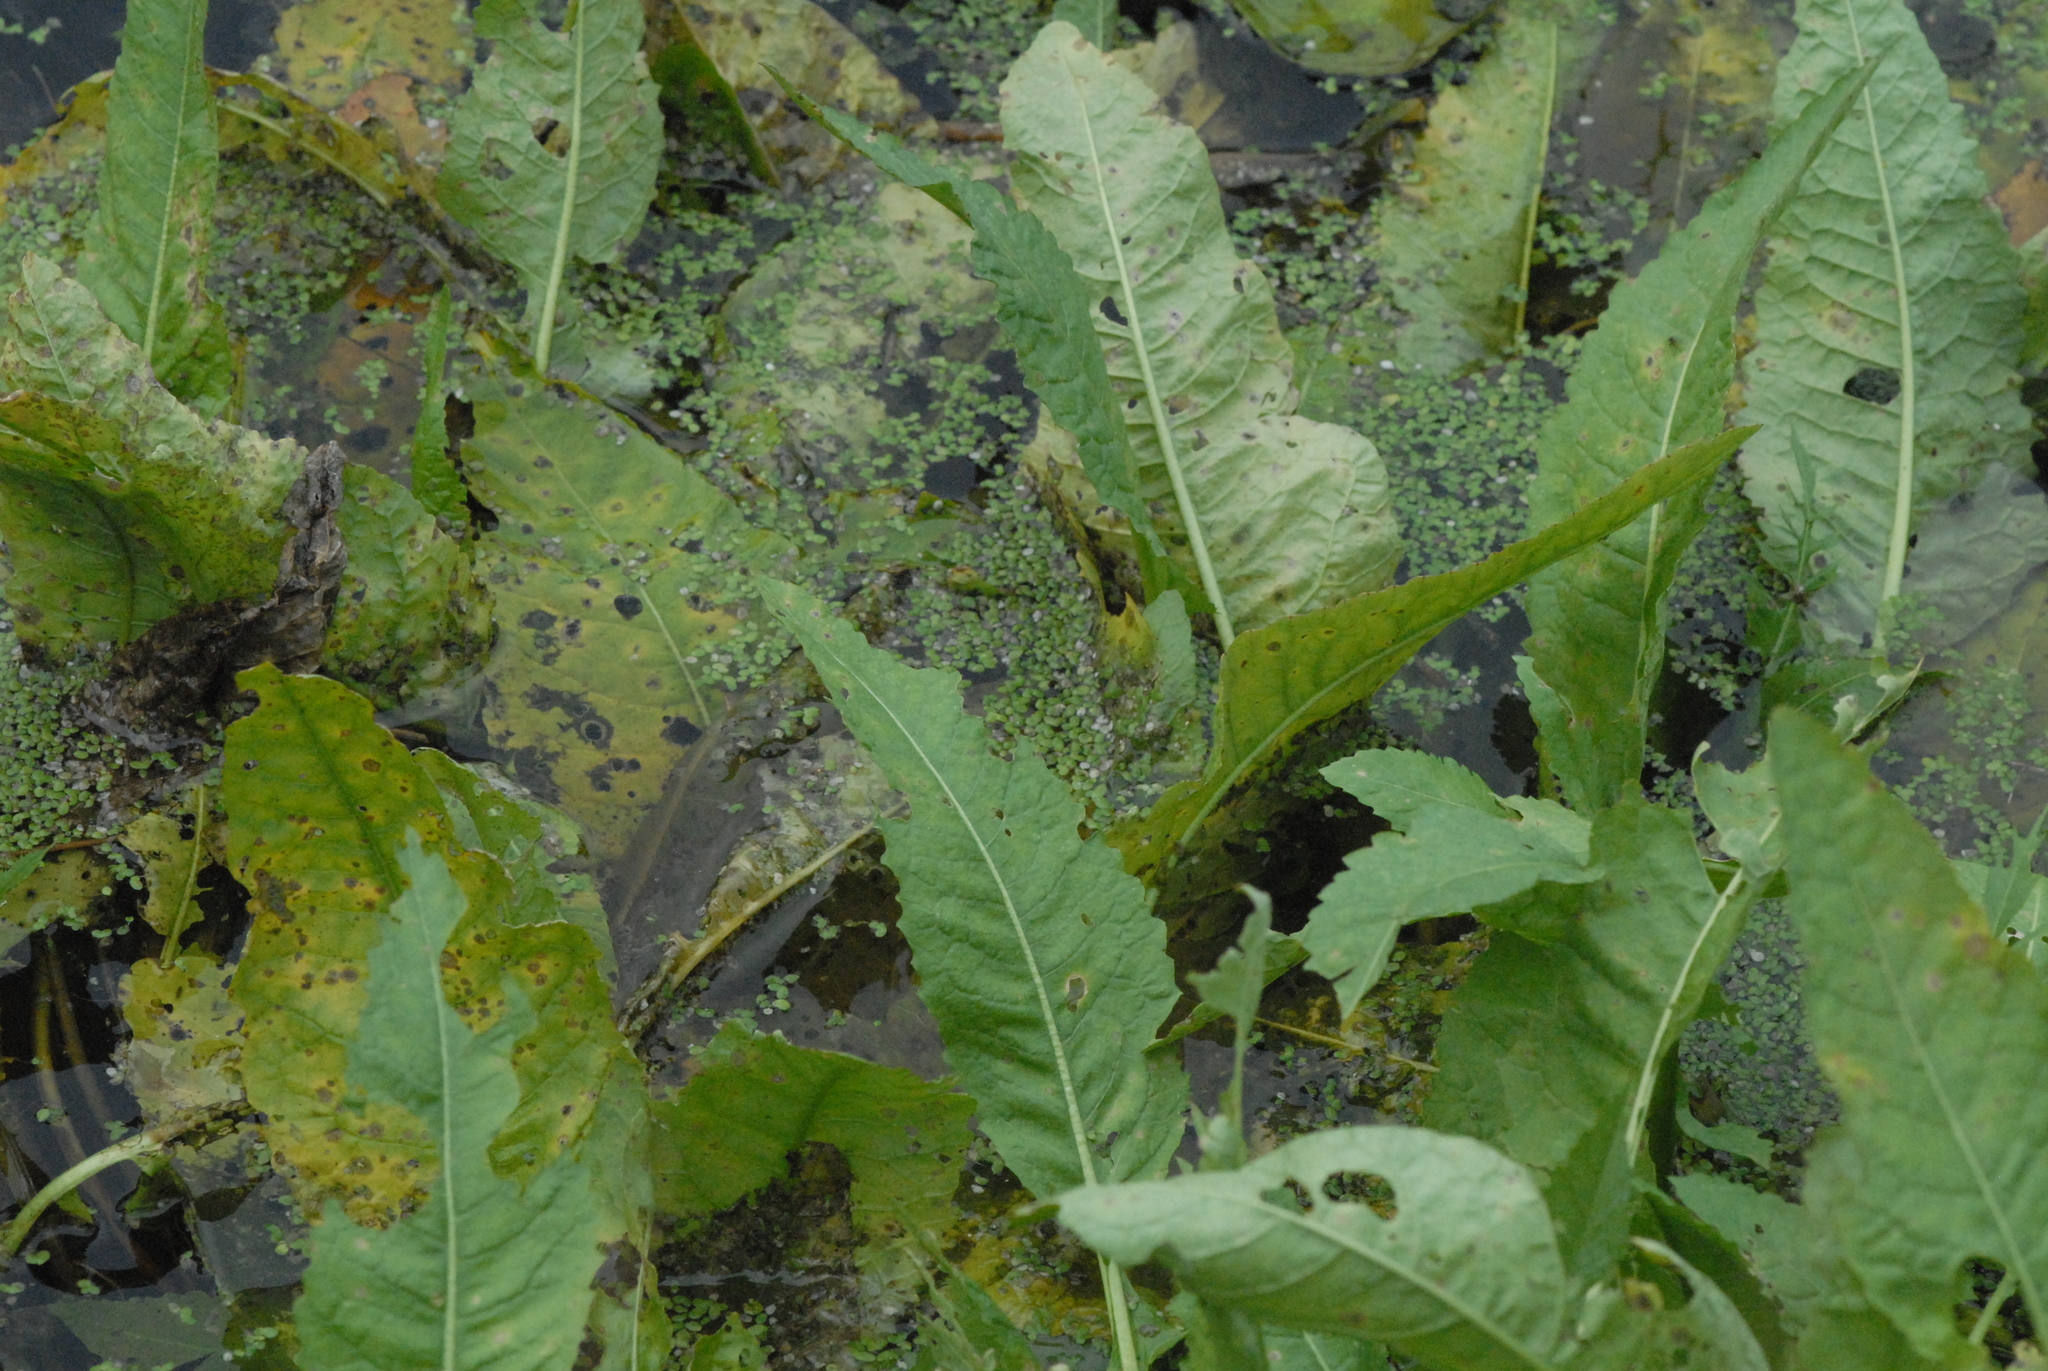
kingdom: Plantae
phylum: Tracheophyta
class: Magnoliopsida
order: Brassicales
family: Brassicaceae
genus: Rorippa
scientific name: Rorippa amphibia
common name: Great yellow-cress
